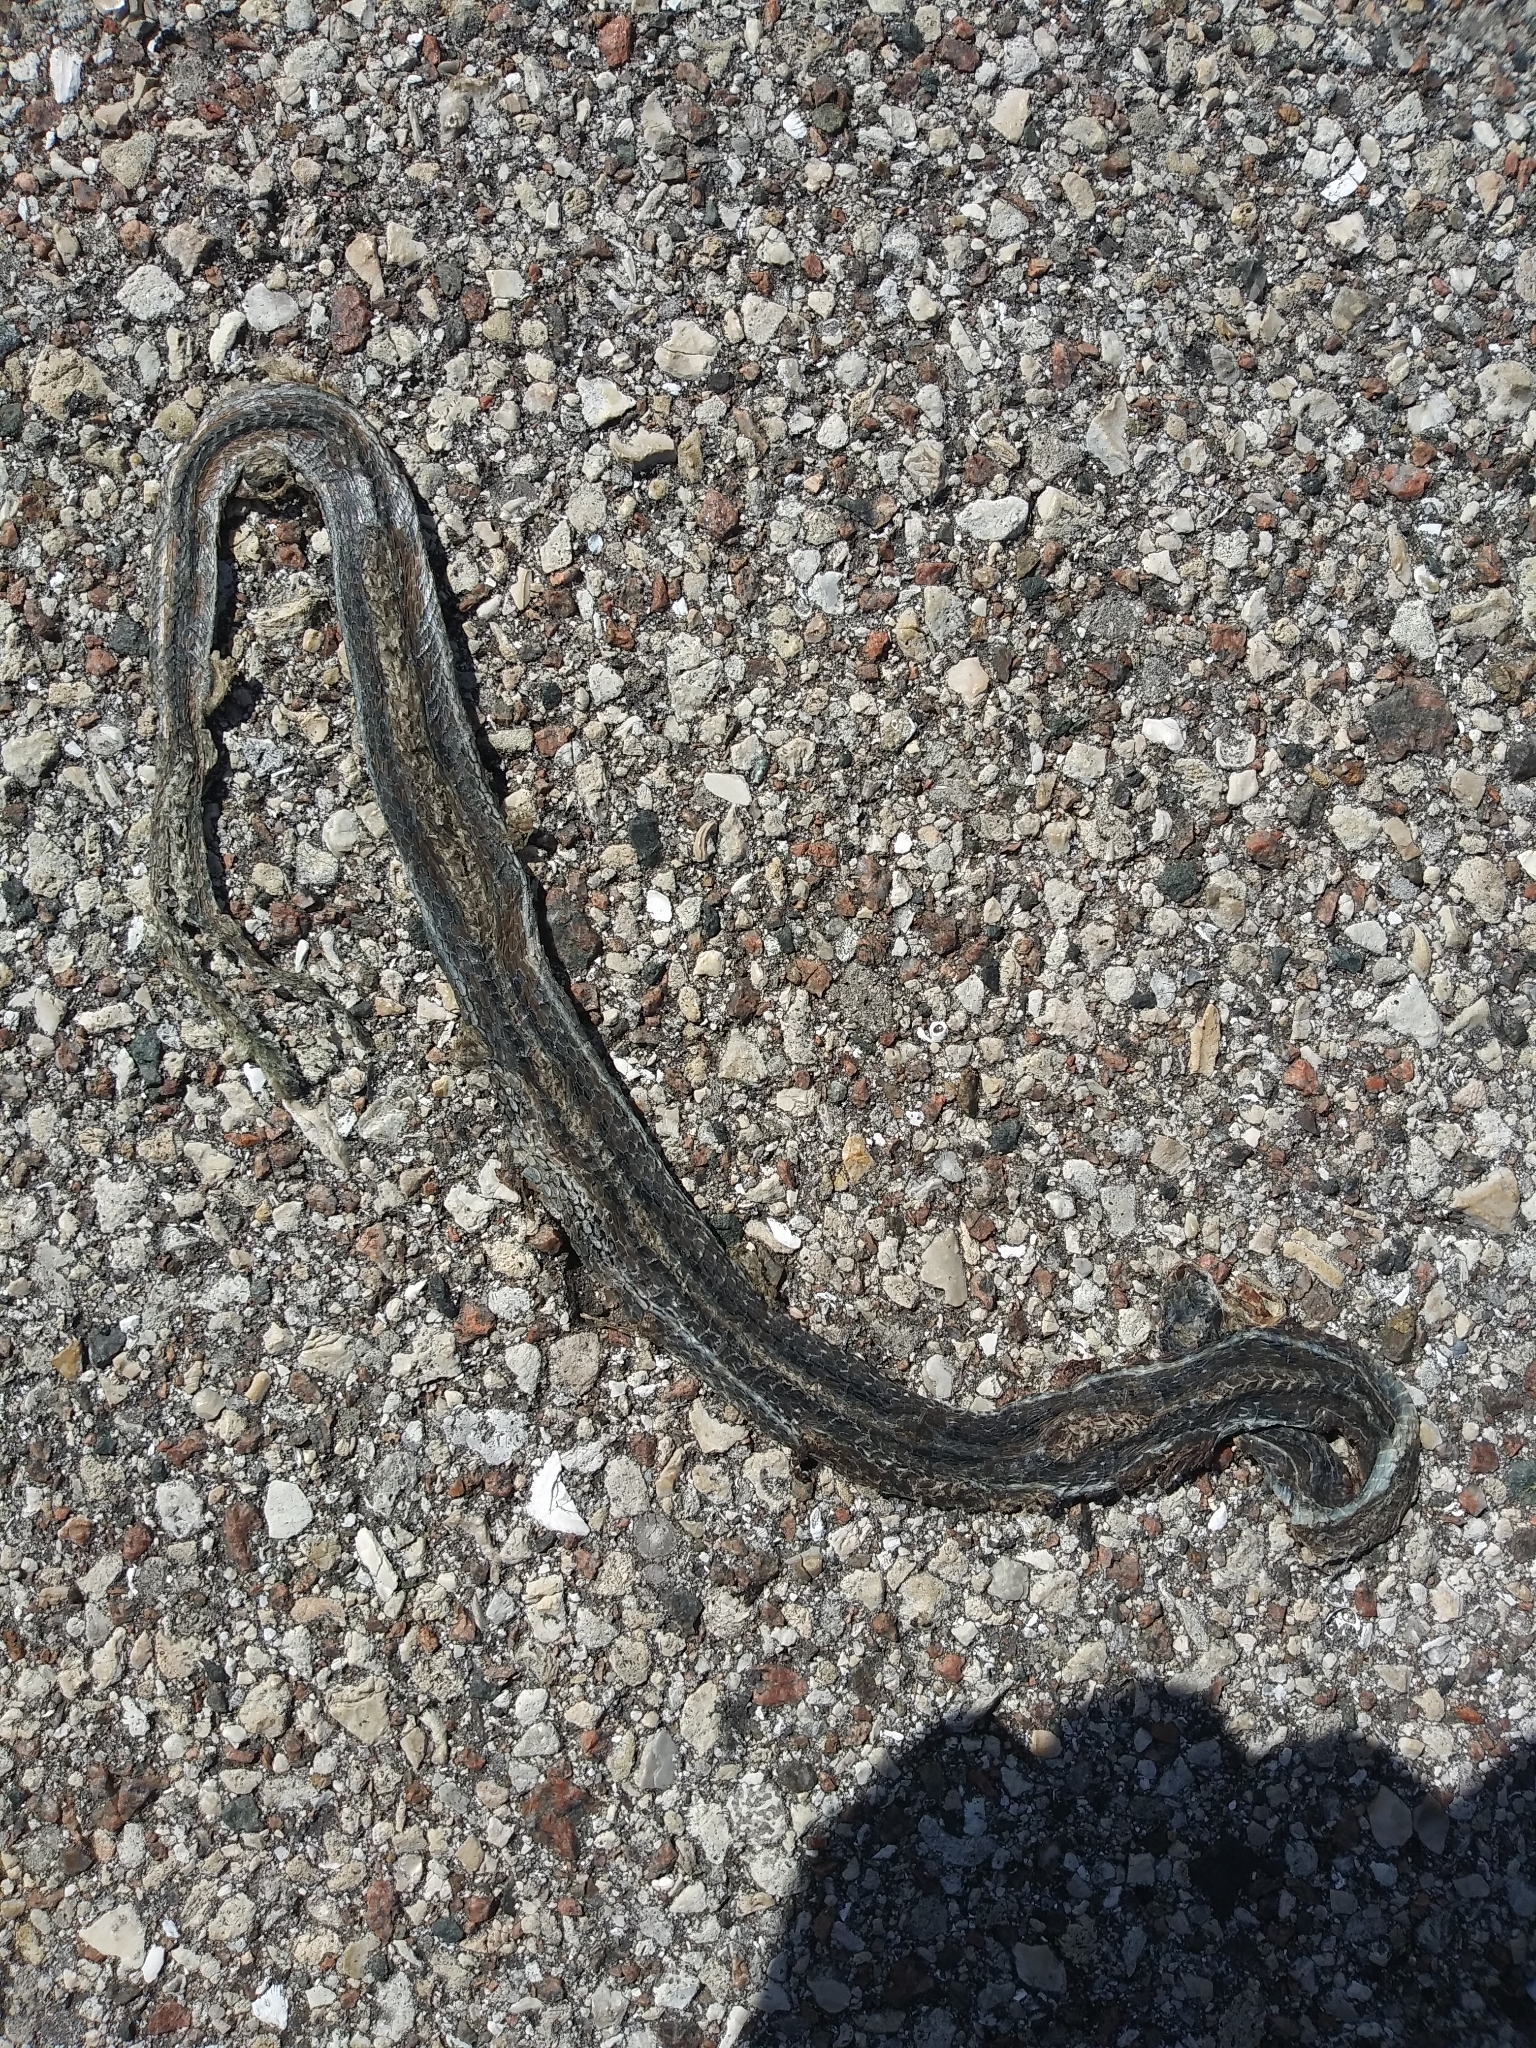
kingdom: Animalia
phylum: Chordata
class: Squamata
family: Colubridae
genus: Thamnophis
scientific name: Thamnophis saurita
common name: Eastern ribbonsnake
